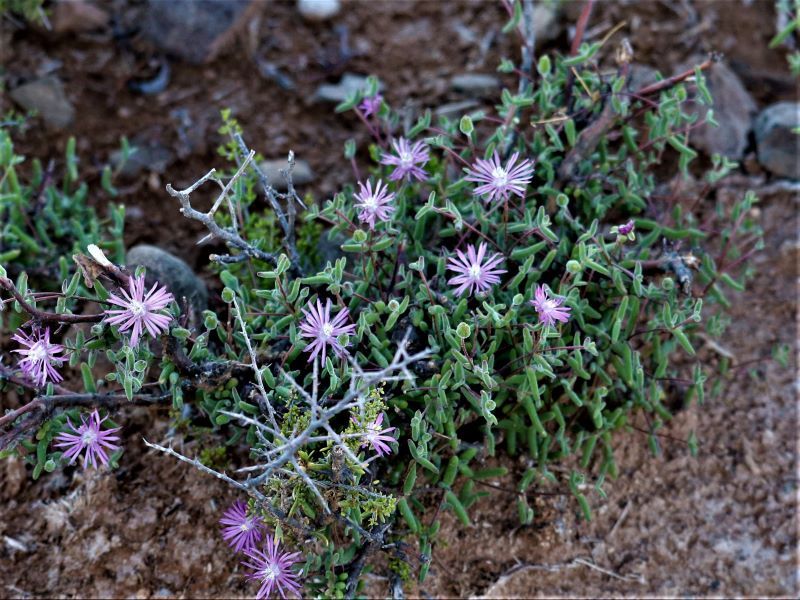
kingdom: Plantae
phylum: Tracheophyta
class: Magnoliopsida
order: Caryophyllales
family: Aizoaceae
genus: Drosanthemum
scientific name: Drosanthemum lique
